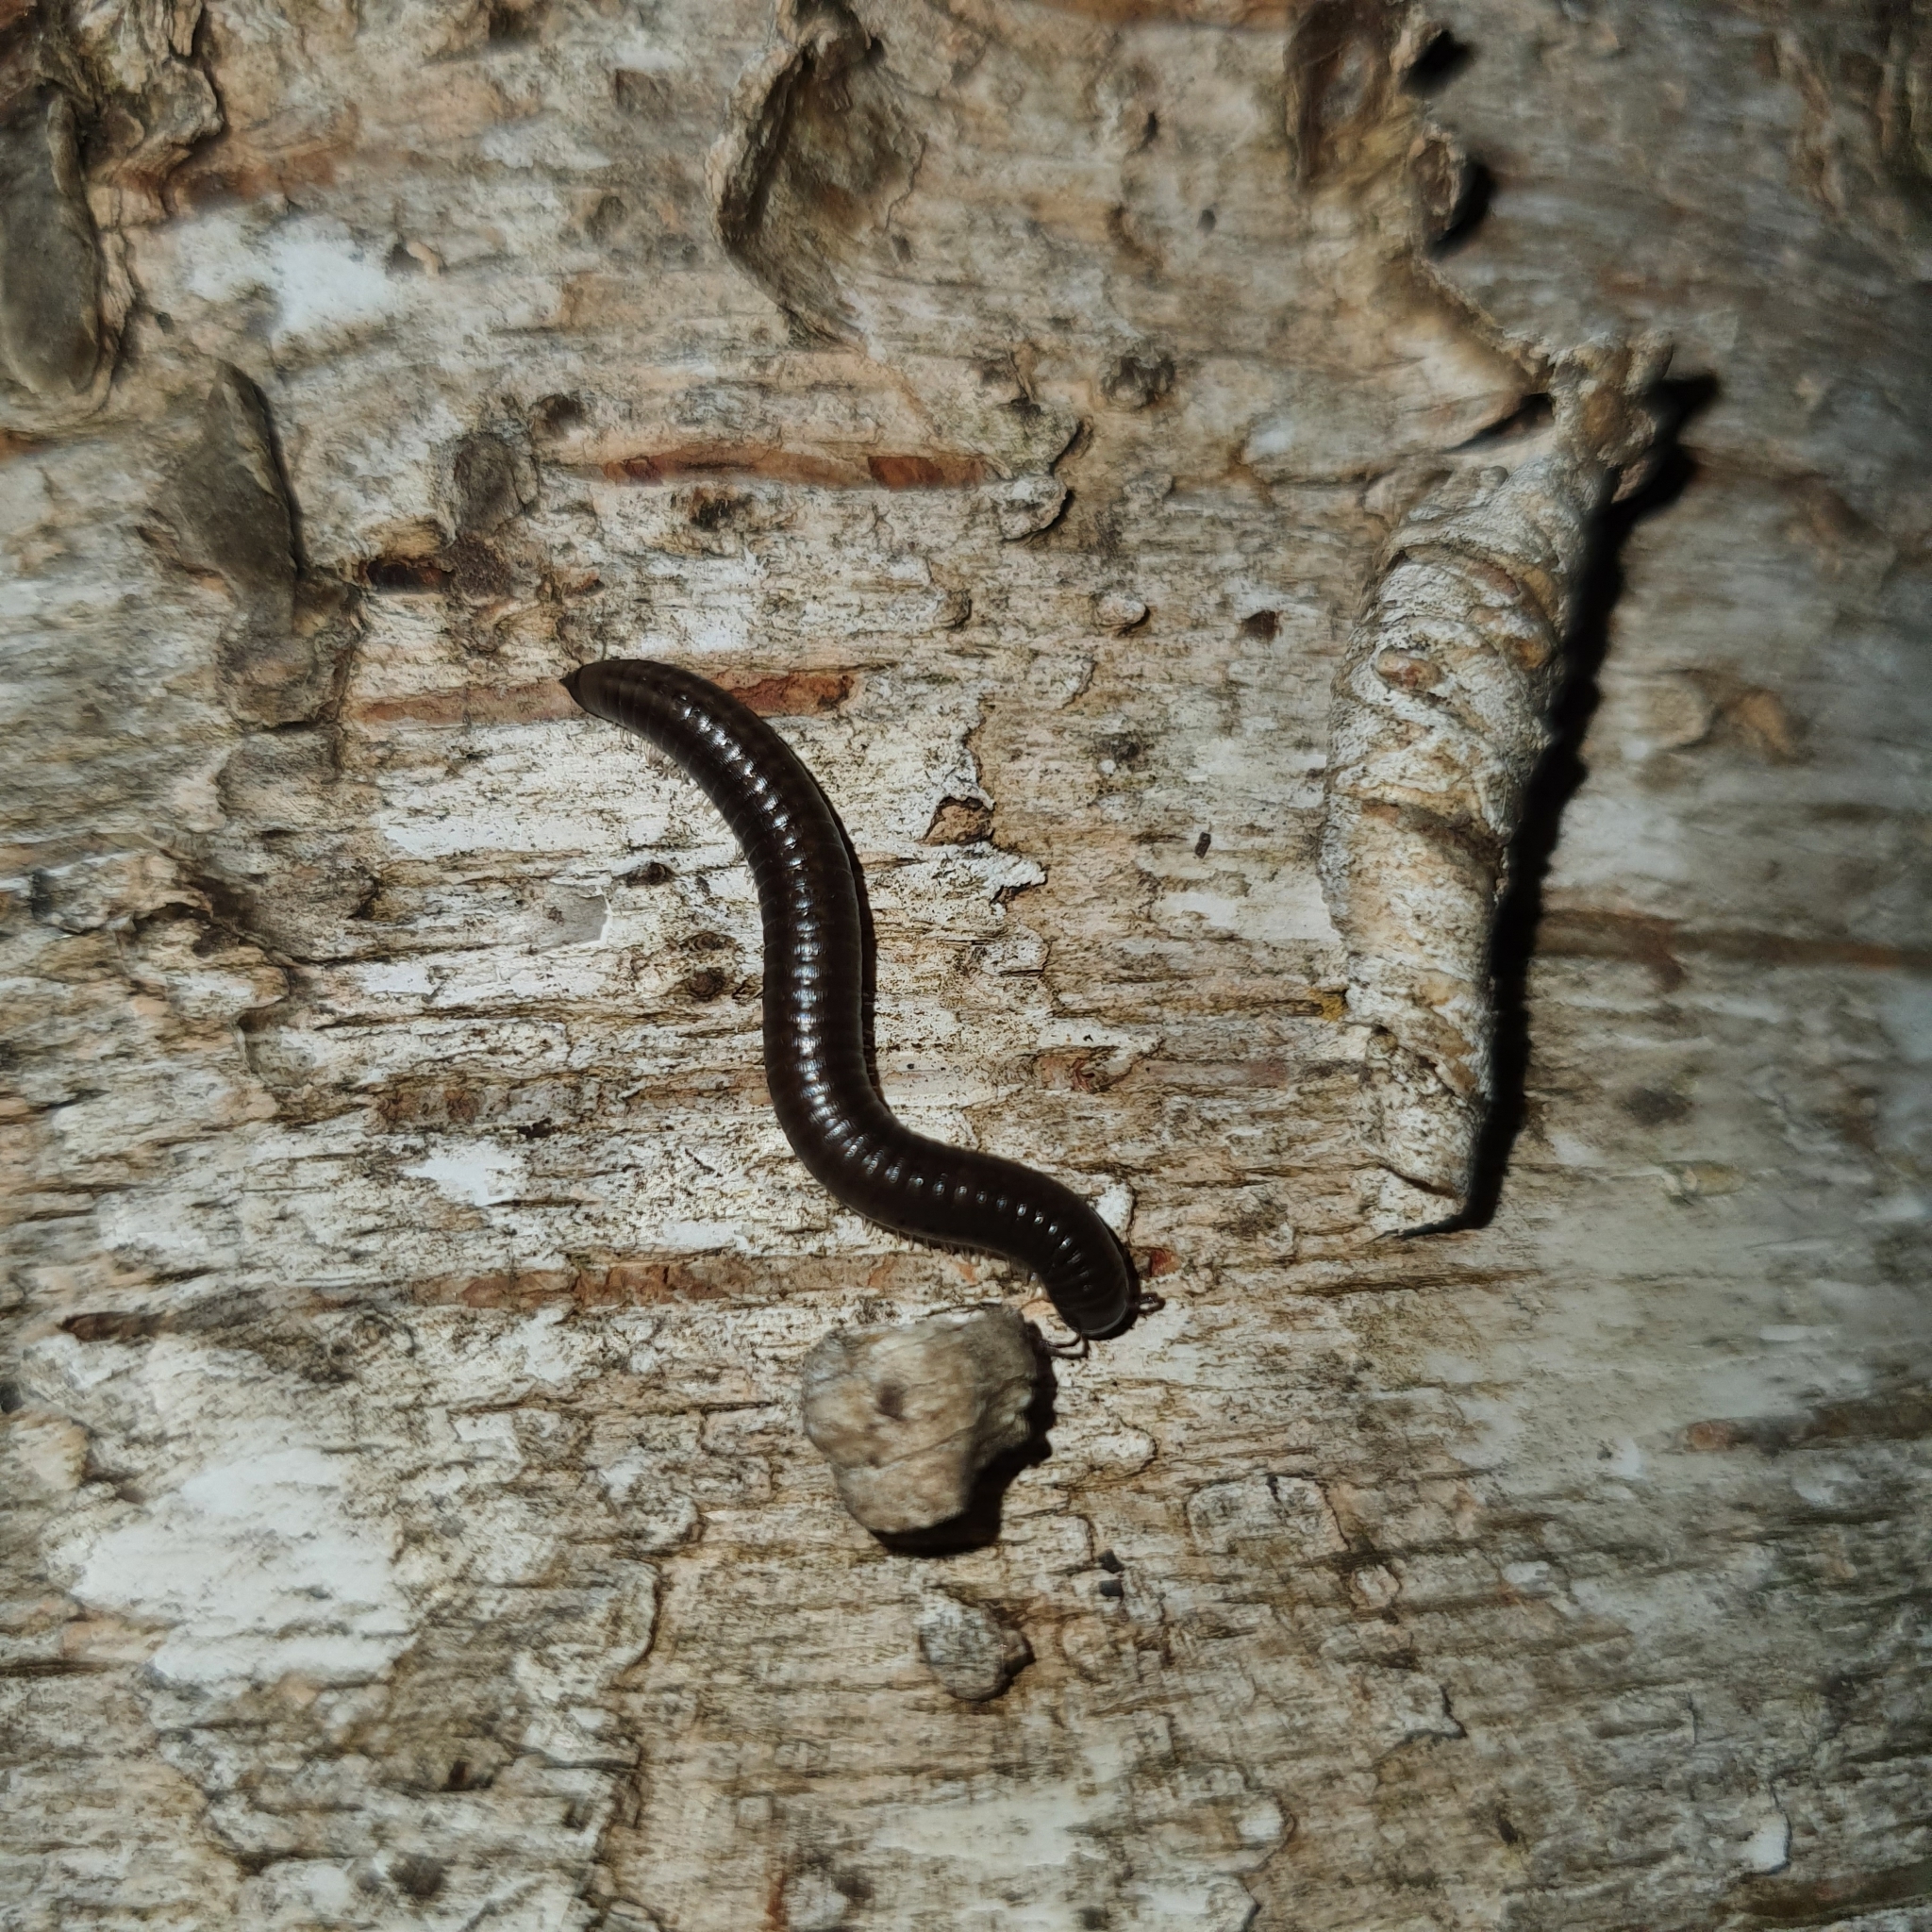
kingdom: Animalia
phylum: Arthropoda
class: Diplopoda
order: Julida
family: Julidae
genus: Ommatoiulus
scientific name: Ommatoiulus moreleti
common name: Portuguese millipede
